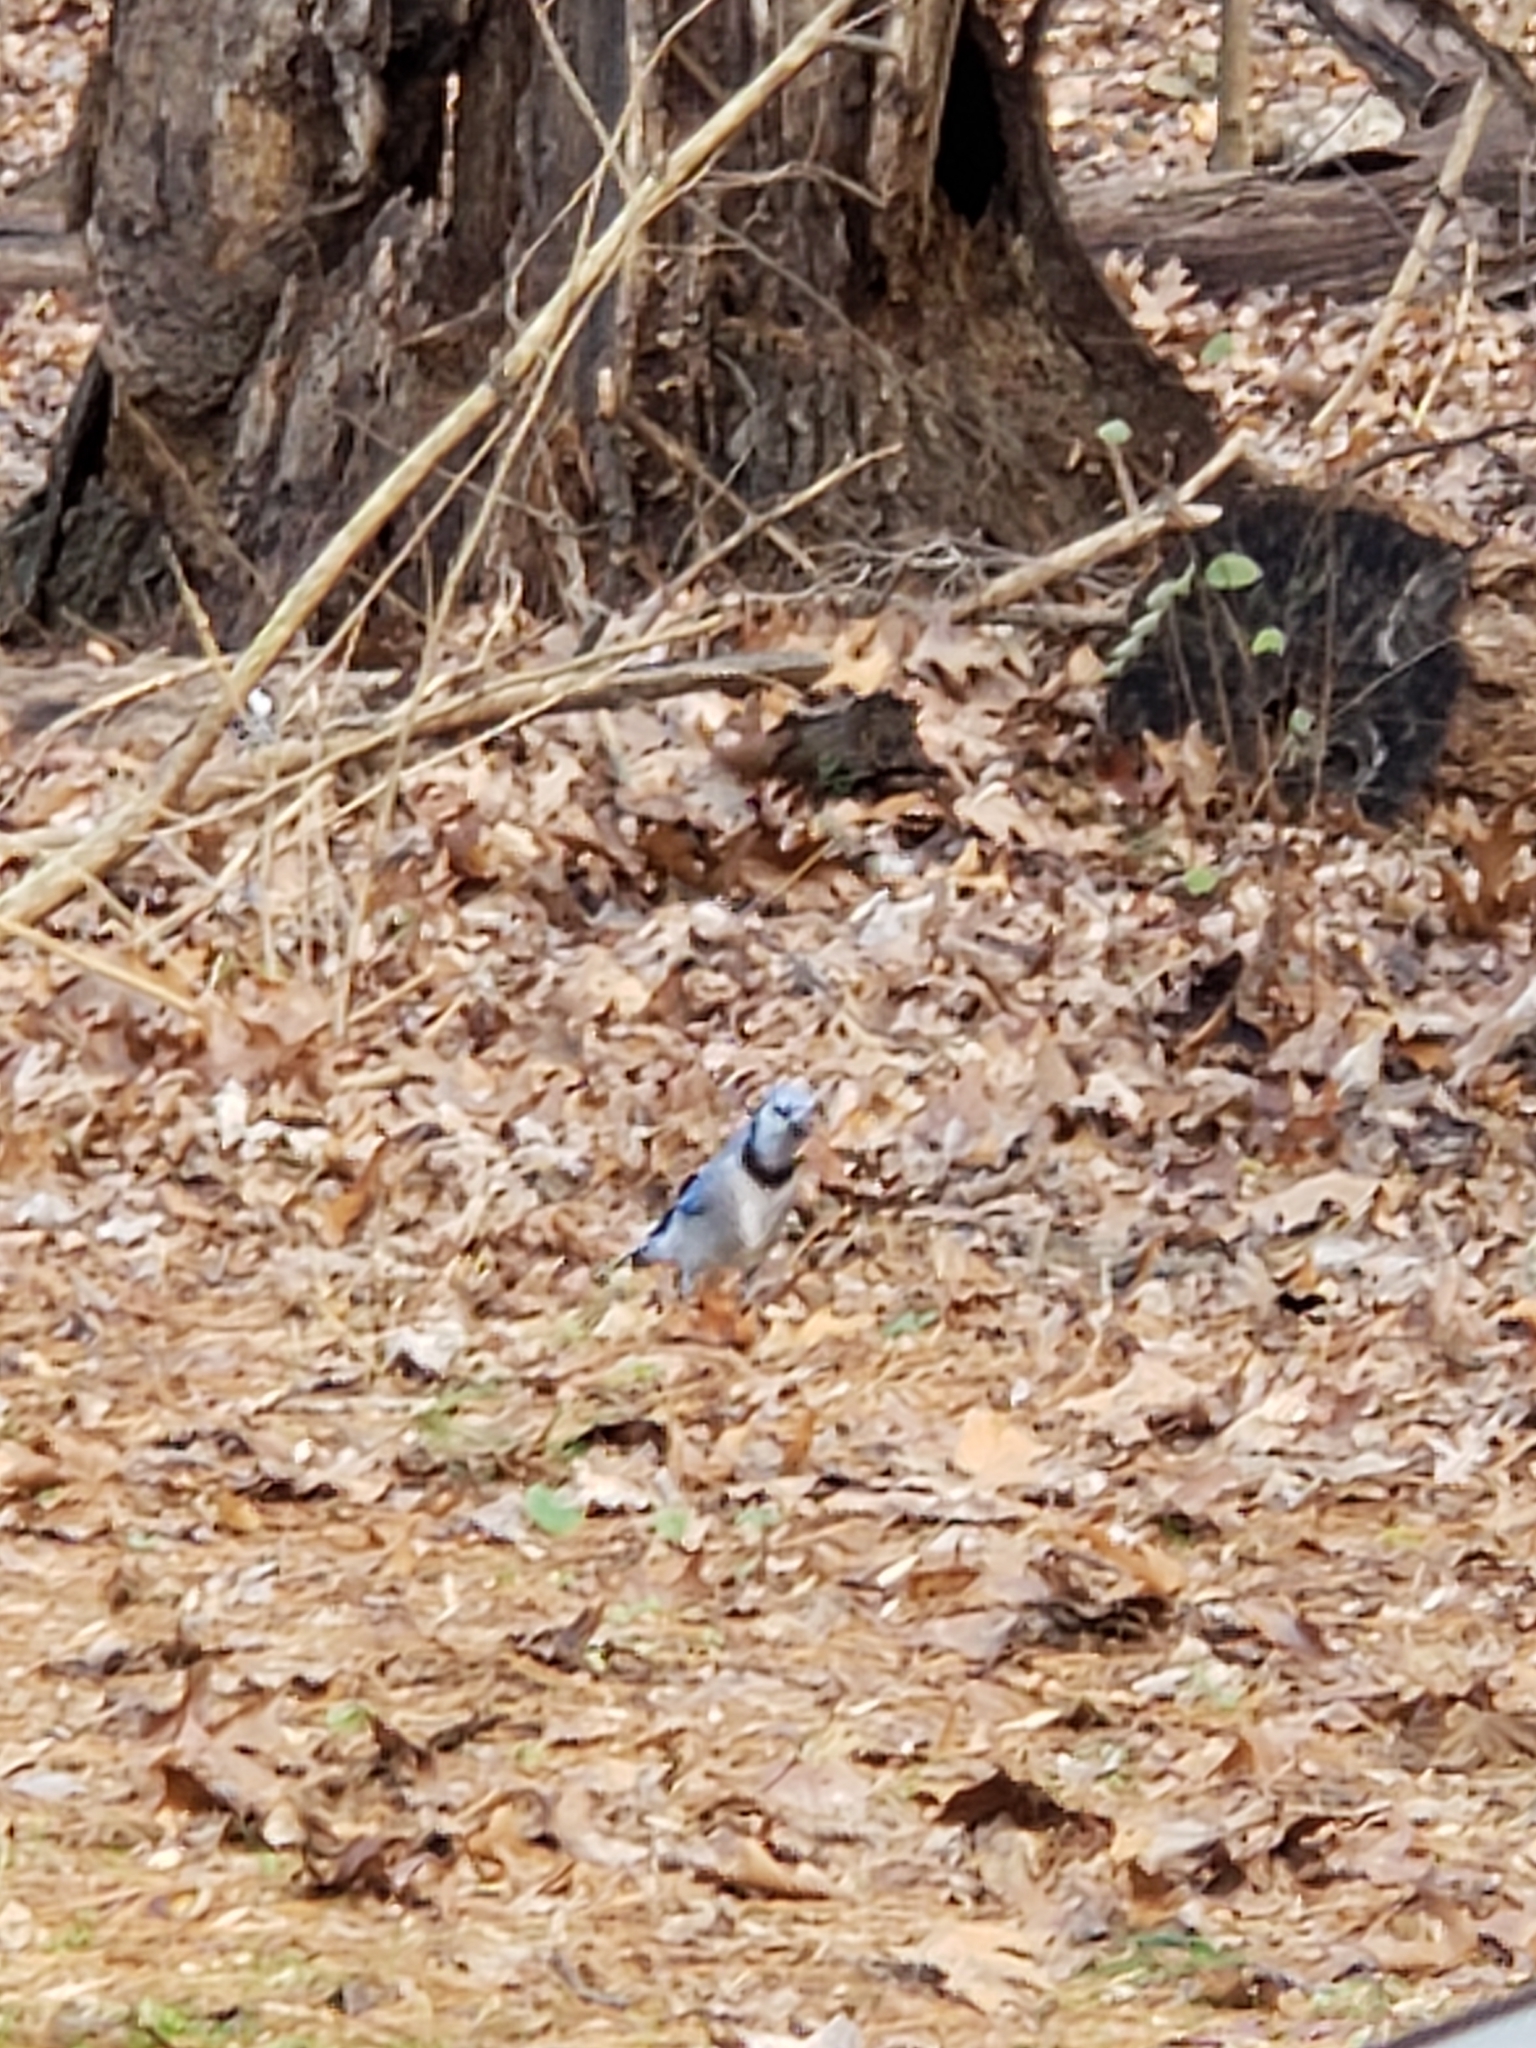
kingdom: Animalia
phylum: Chordata
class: Aves
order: Passeriformes
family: Corvidae
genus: Cyanocitta
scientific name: Cyanocitta cristata
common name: Blue jay
